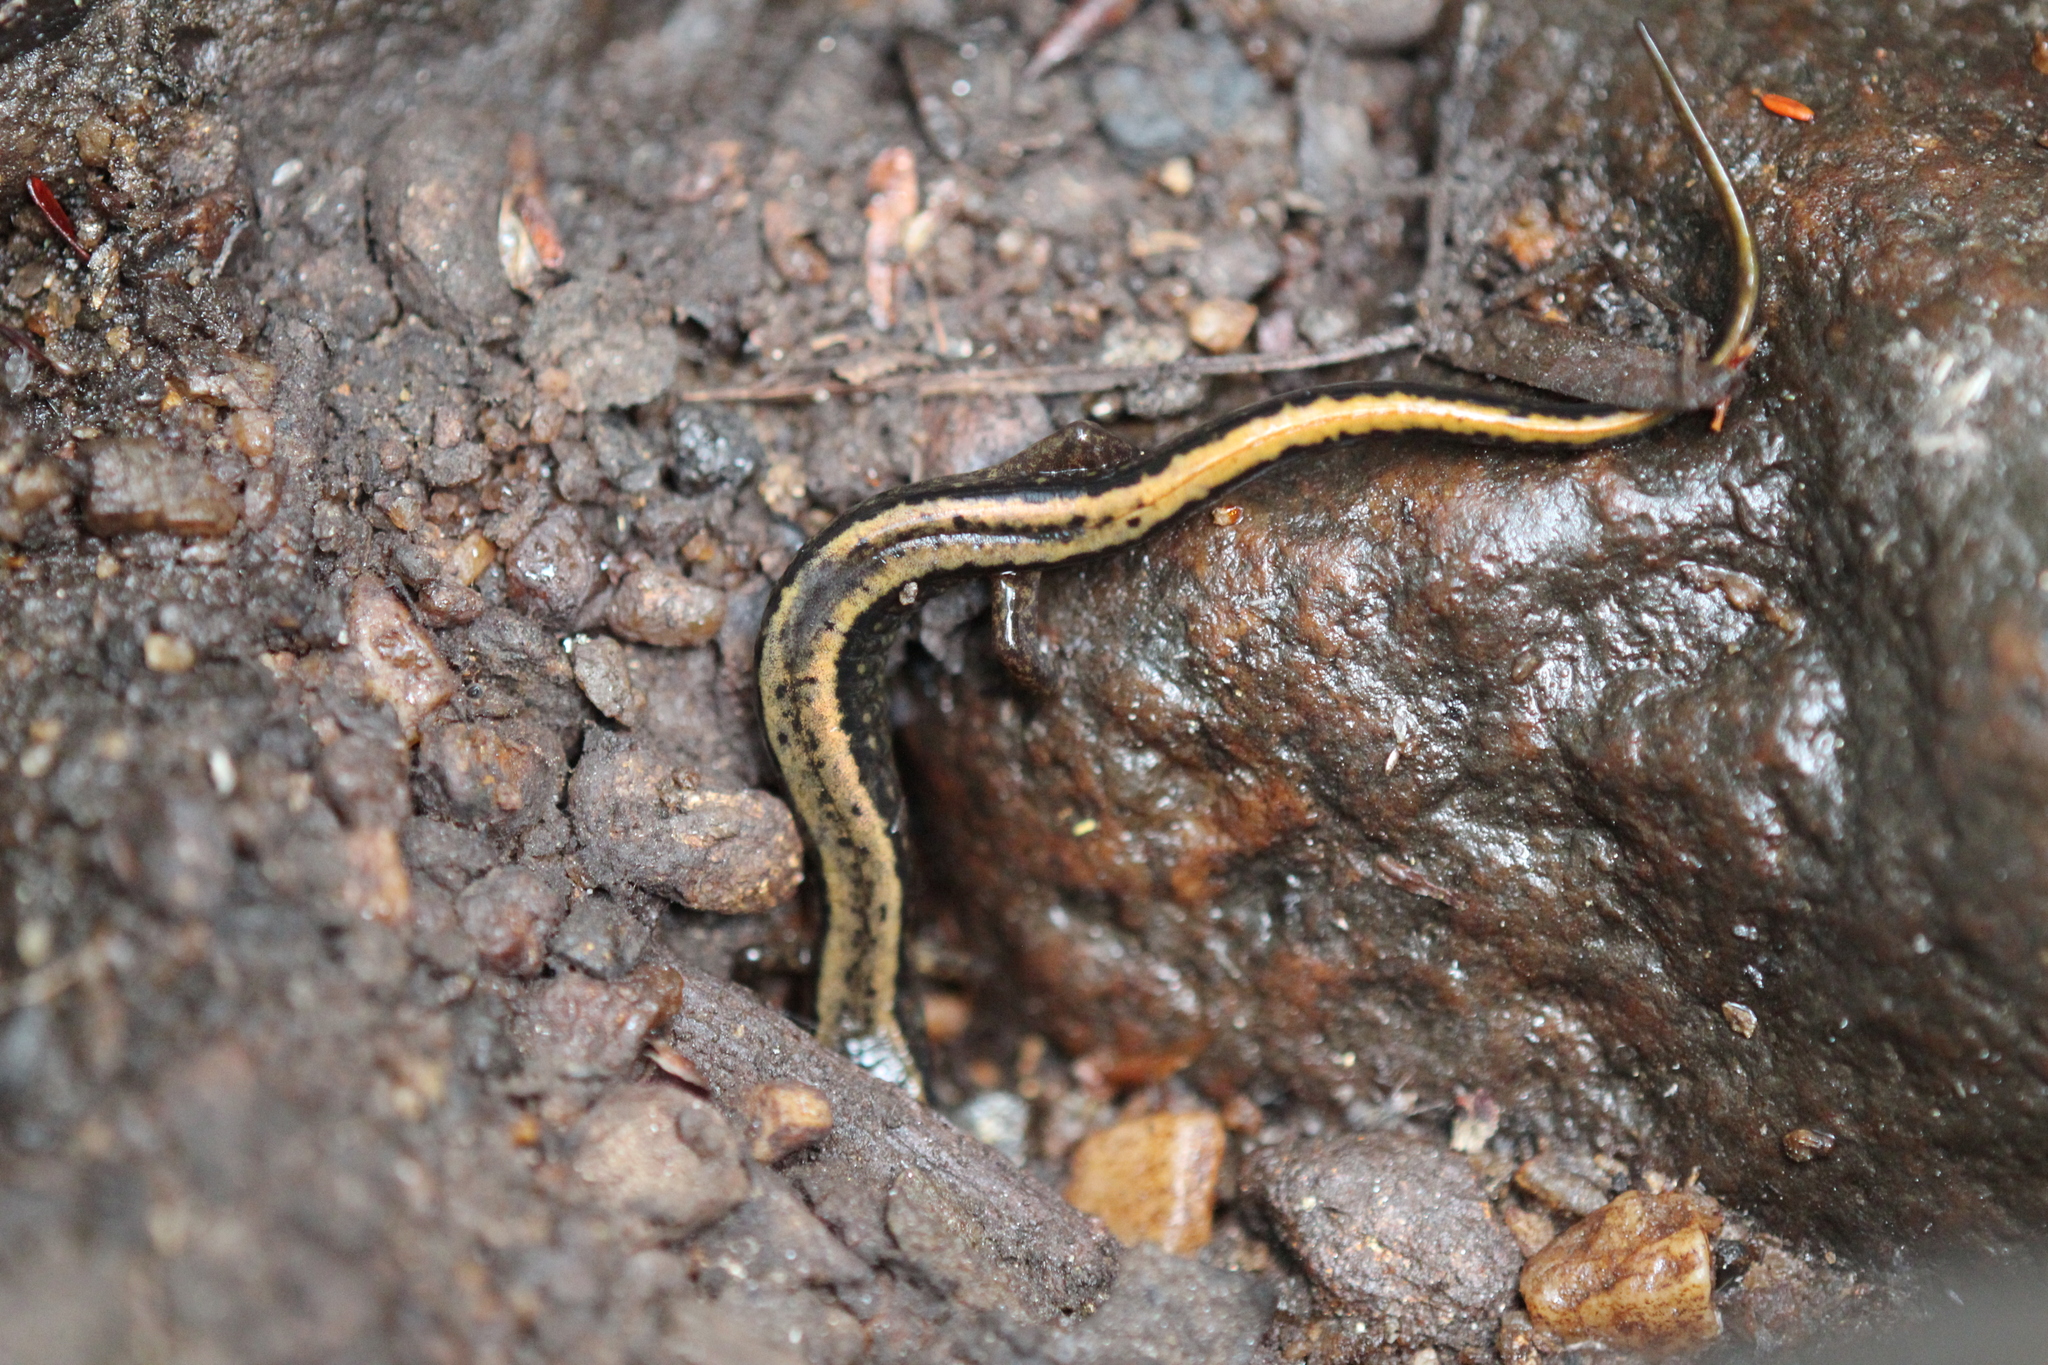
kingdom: Animalia
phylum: Chordata
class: Amphibia
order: Caudata
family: Plethodontidae
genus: Eurycea
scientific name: Eurycea bislineata
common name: Northern two-lined salamander
